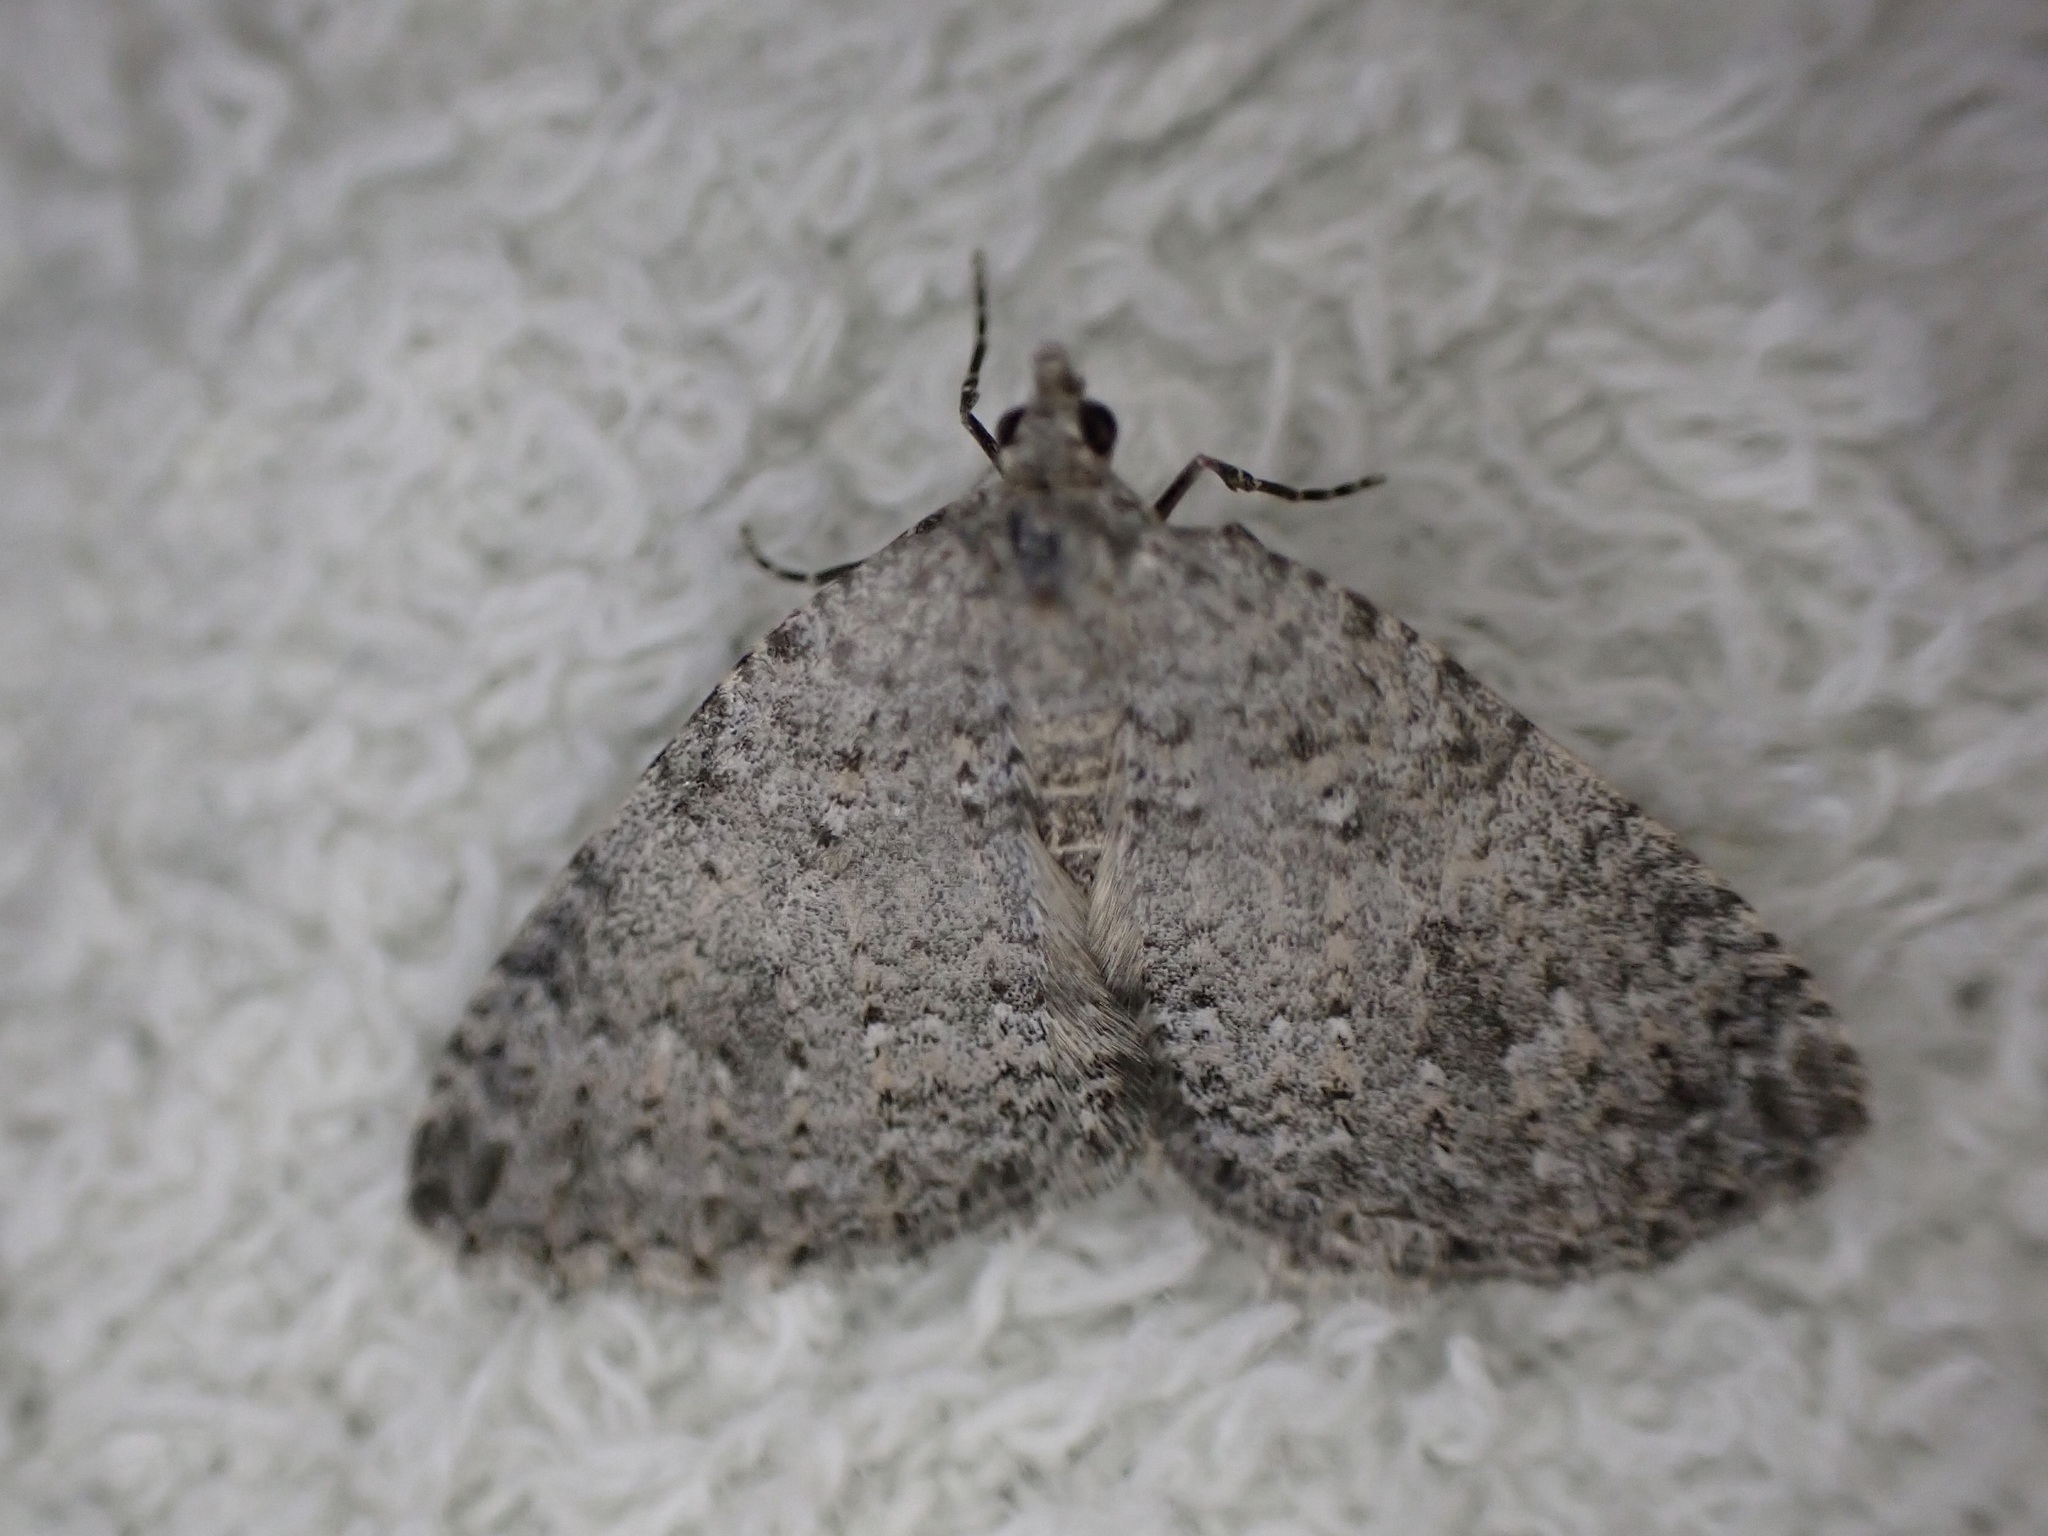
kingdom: Animalia
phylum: Arthropoda
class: Insecta
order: Lepidoptera
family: Geometridae
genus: Helastia
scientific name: Helastia corcularia
